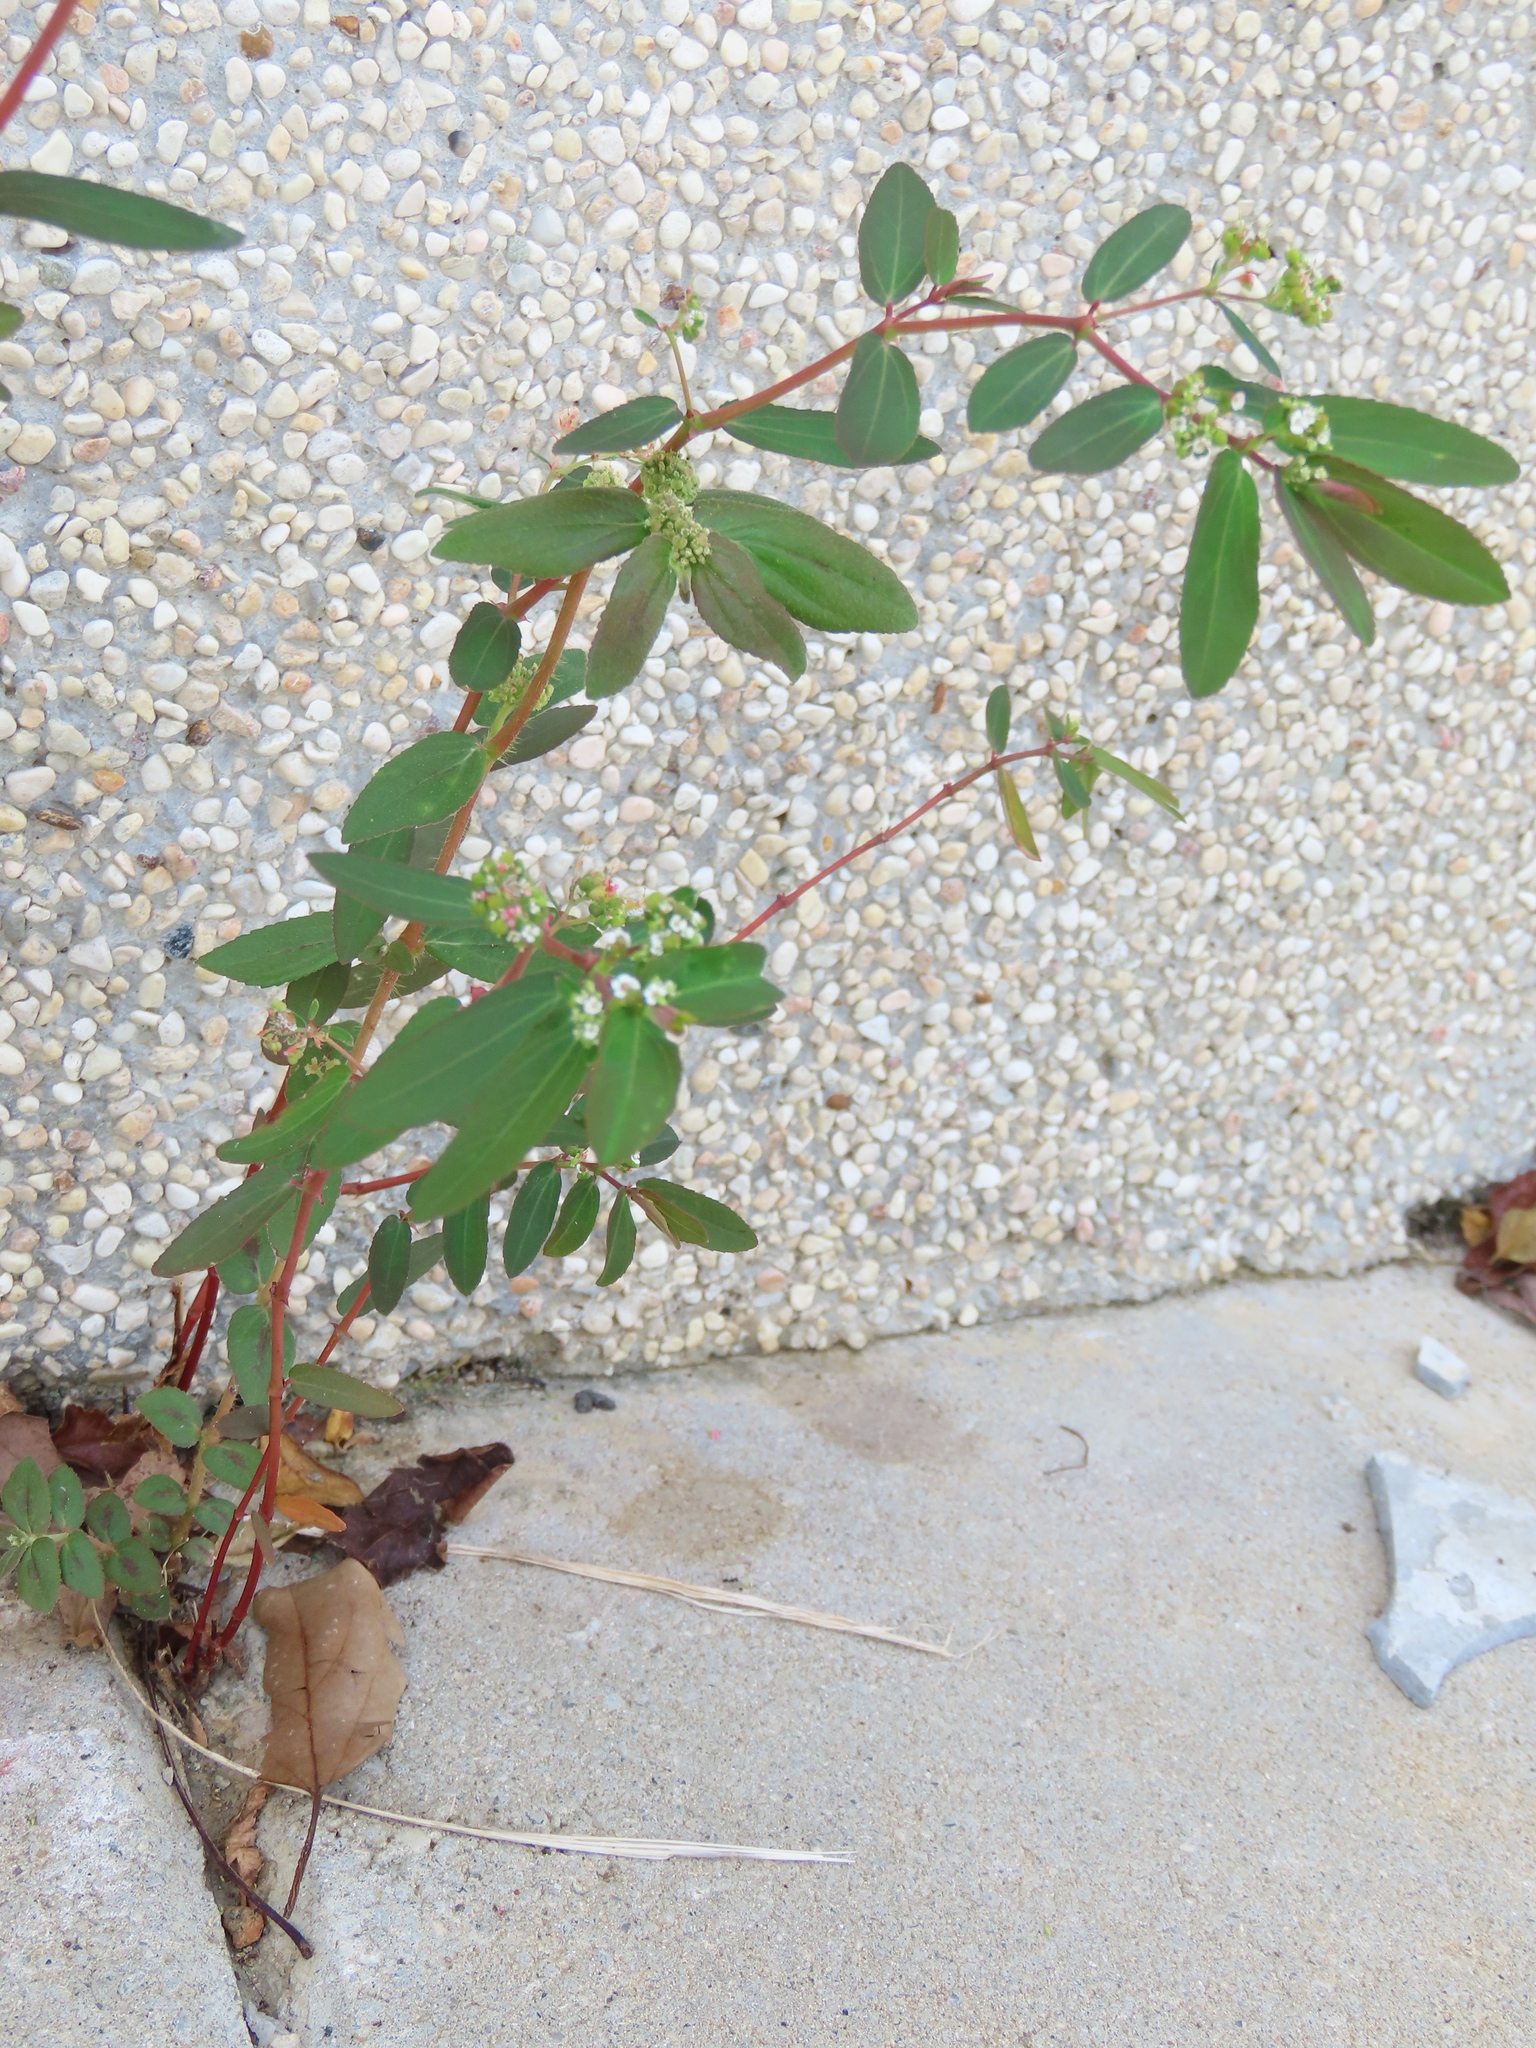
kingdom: Plantae
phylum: Tracheophyta
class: Magnoliopsida
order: Malpighiales
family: Euphorbiaceae
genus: Euphorbia
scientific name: Euphorbia hypericifolia
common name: Graceful sandmat
